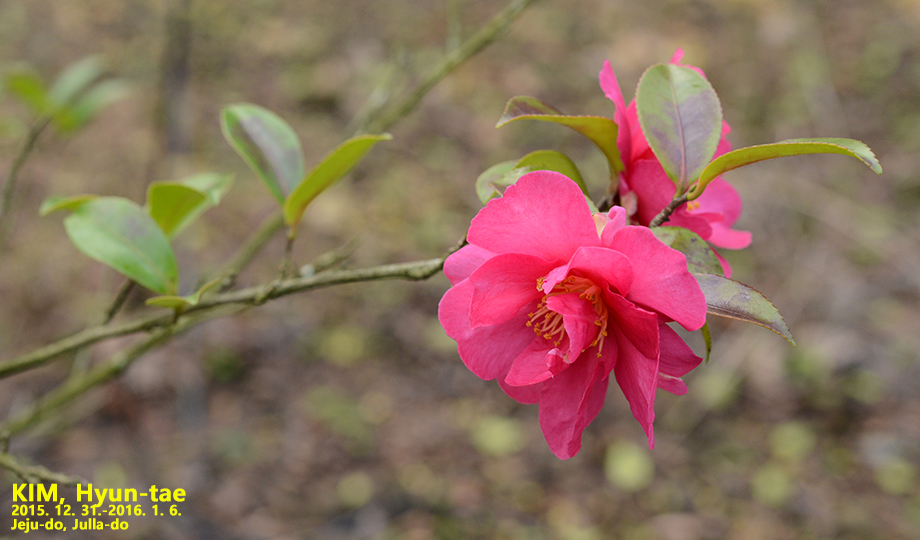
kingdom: Plantae
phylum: Tracheophyta
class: Magnoliopsida
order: Ericales
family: Theaceae
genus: Camellia
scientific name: Camellia sasanqua
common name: Sasanqua camellia
